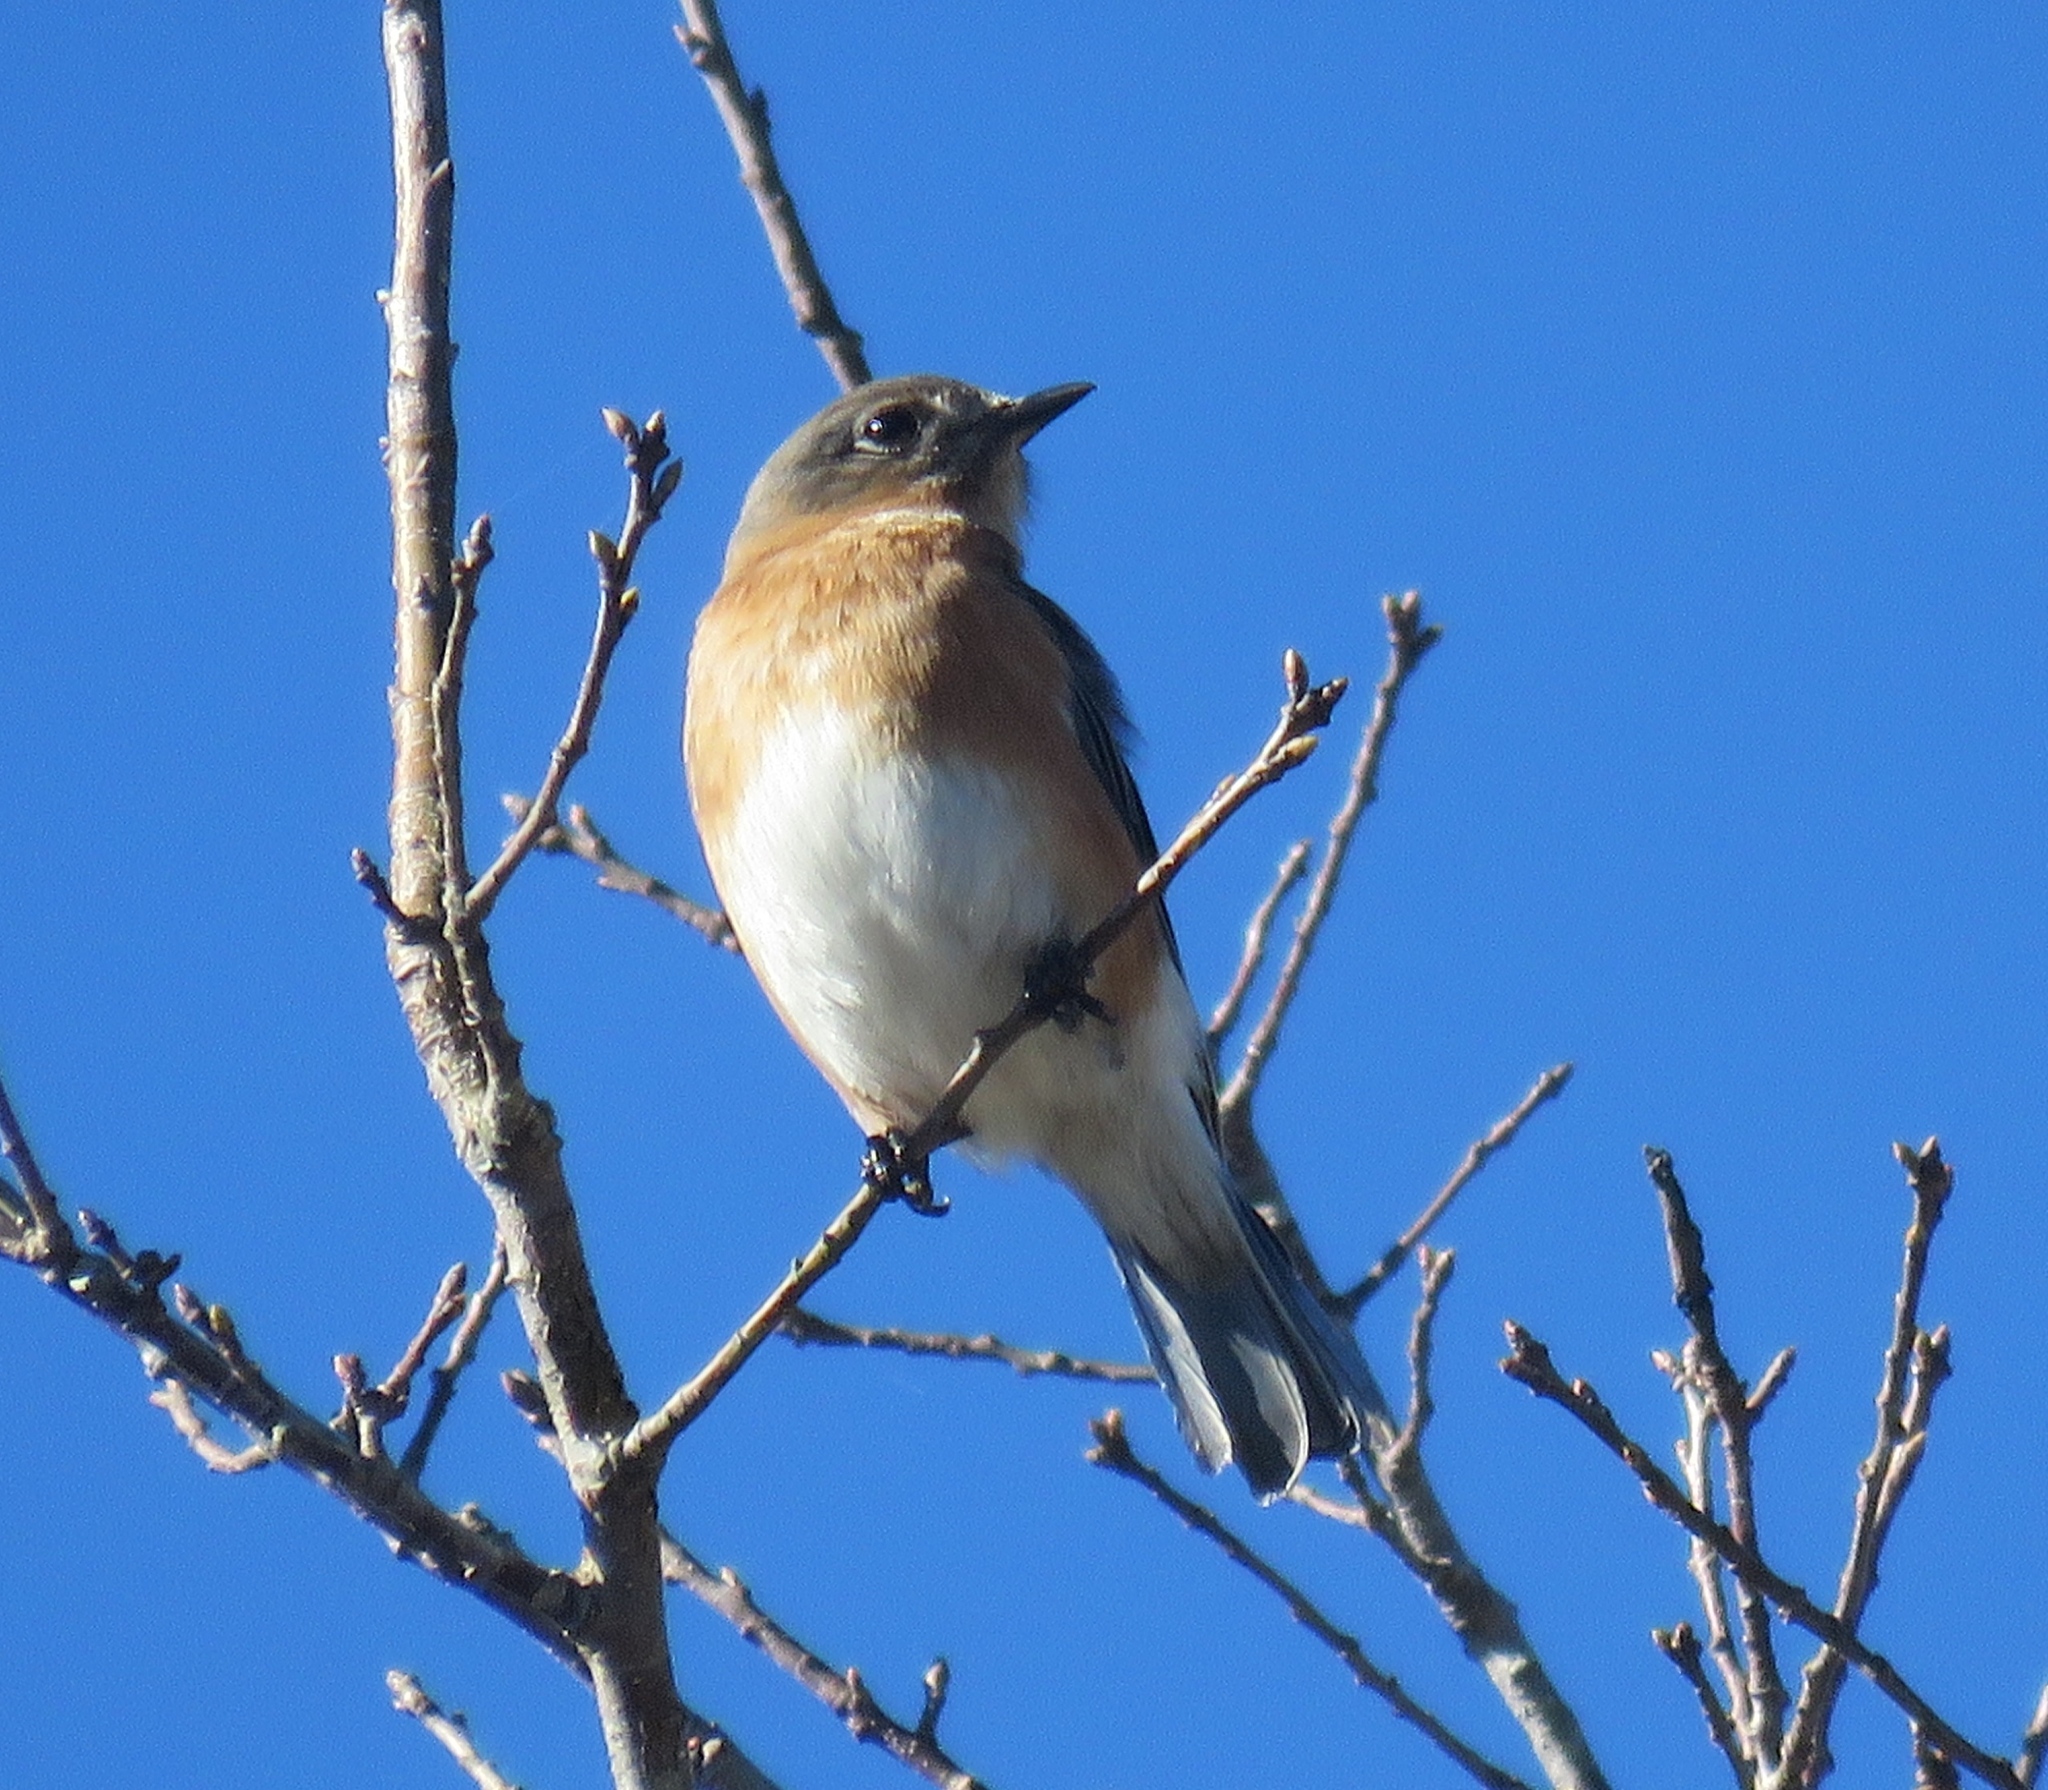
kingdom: Animalia
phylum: Chordata
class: Aves
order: Passeriformes
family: Turdidae
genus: Sialia
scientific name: Sialia sialis
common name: Eastern bluebird
